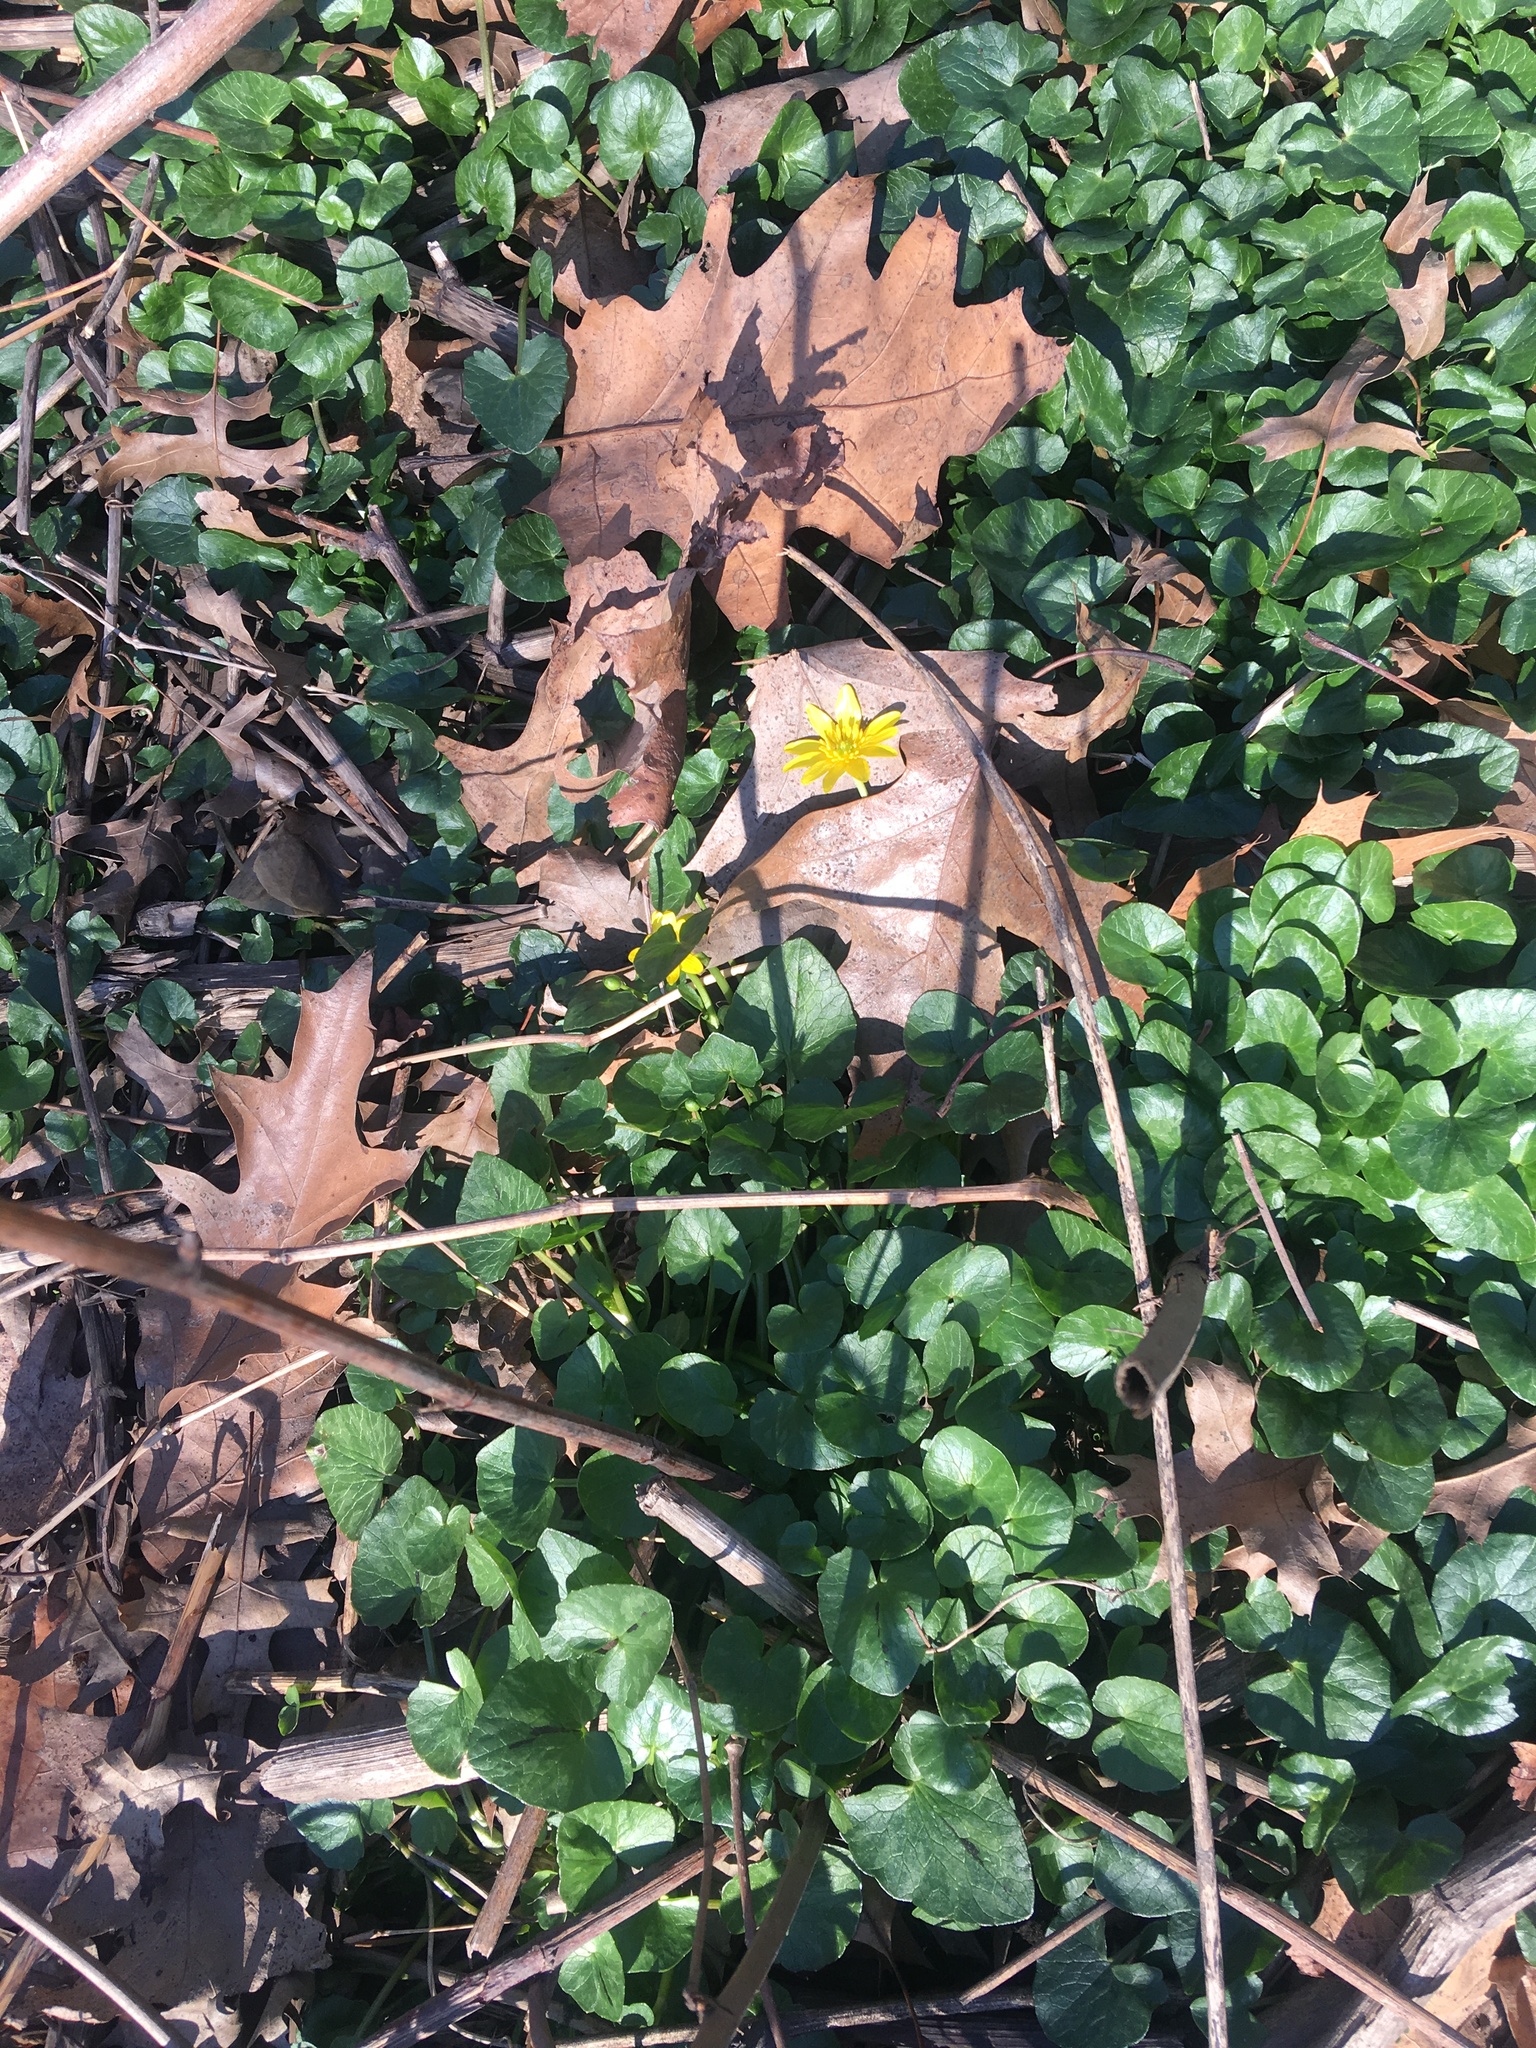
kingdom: Plantae
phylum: Tracheophyta
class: Magnoliopsida
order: Ranunculales
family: Ranunculaceae
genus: Ficaria
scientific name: Ficaria verna
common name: Lesser celandine
